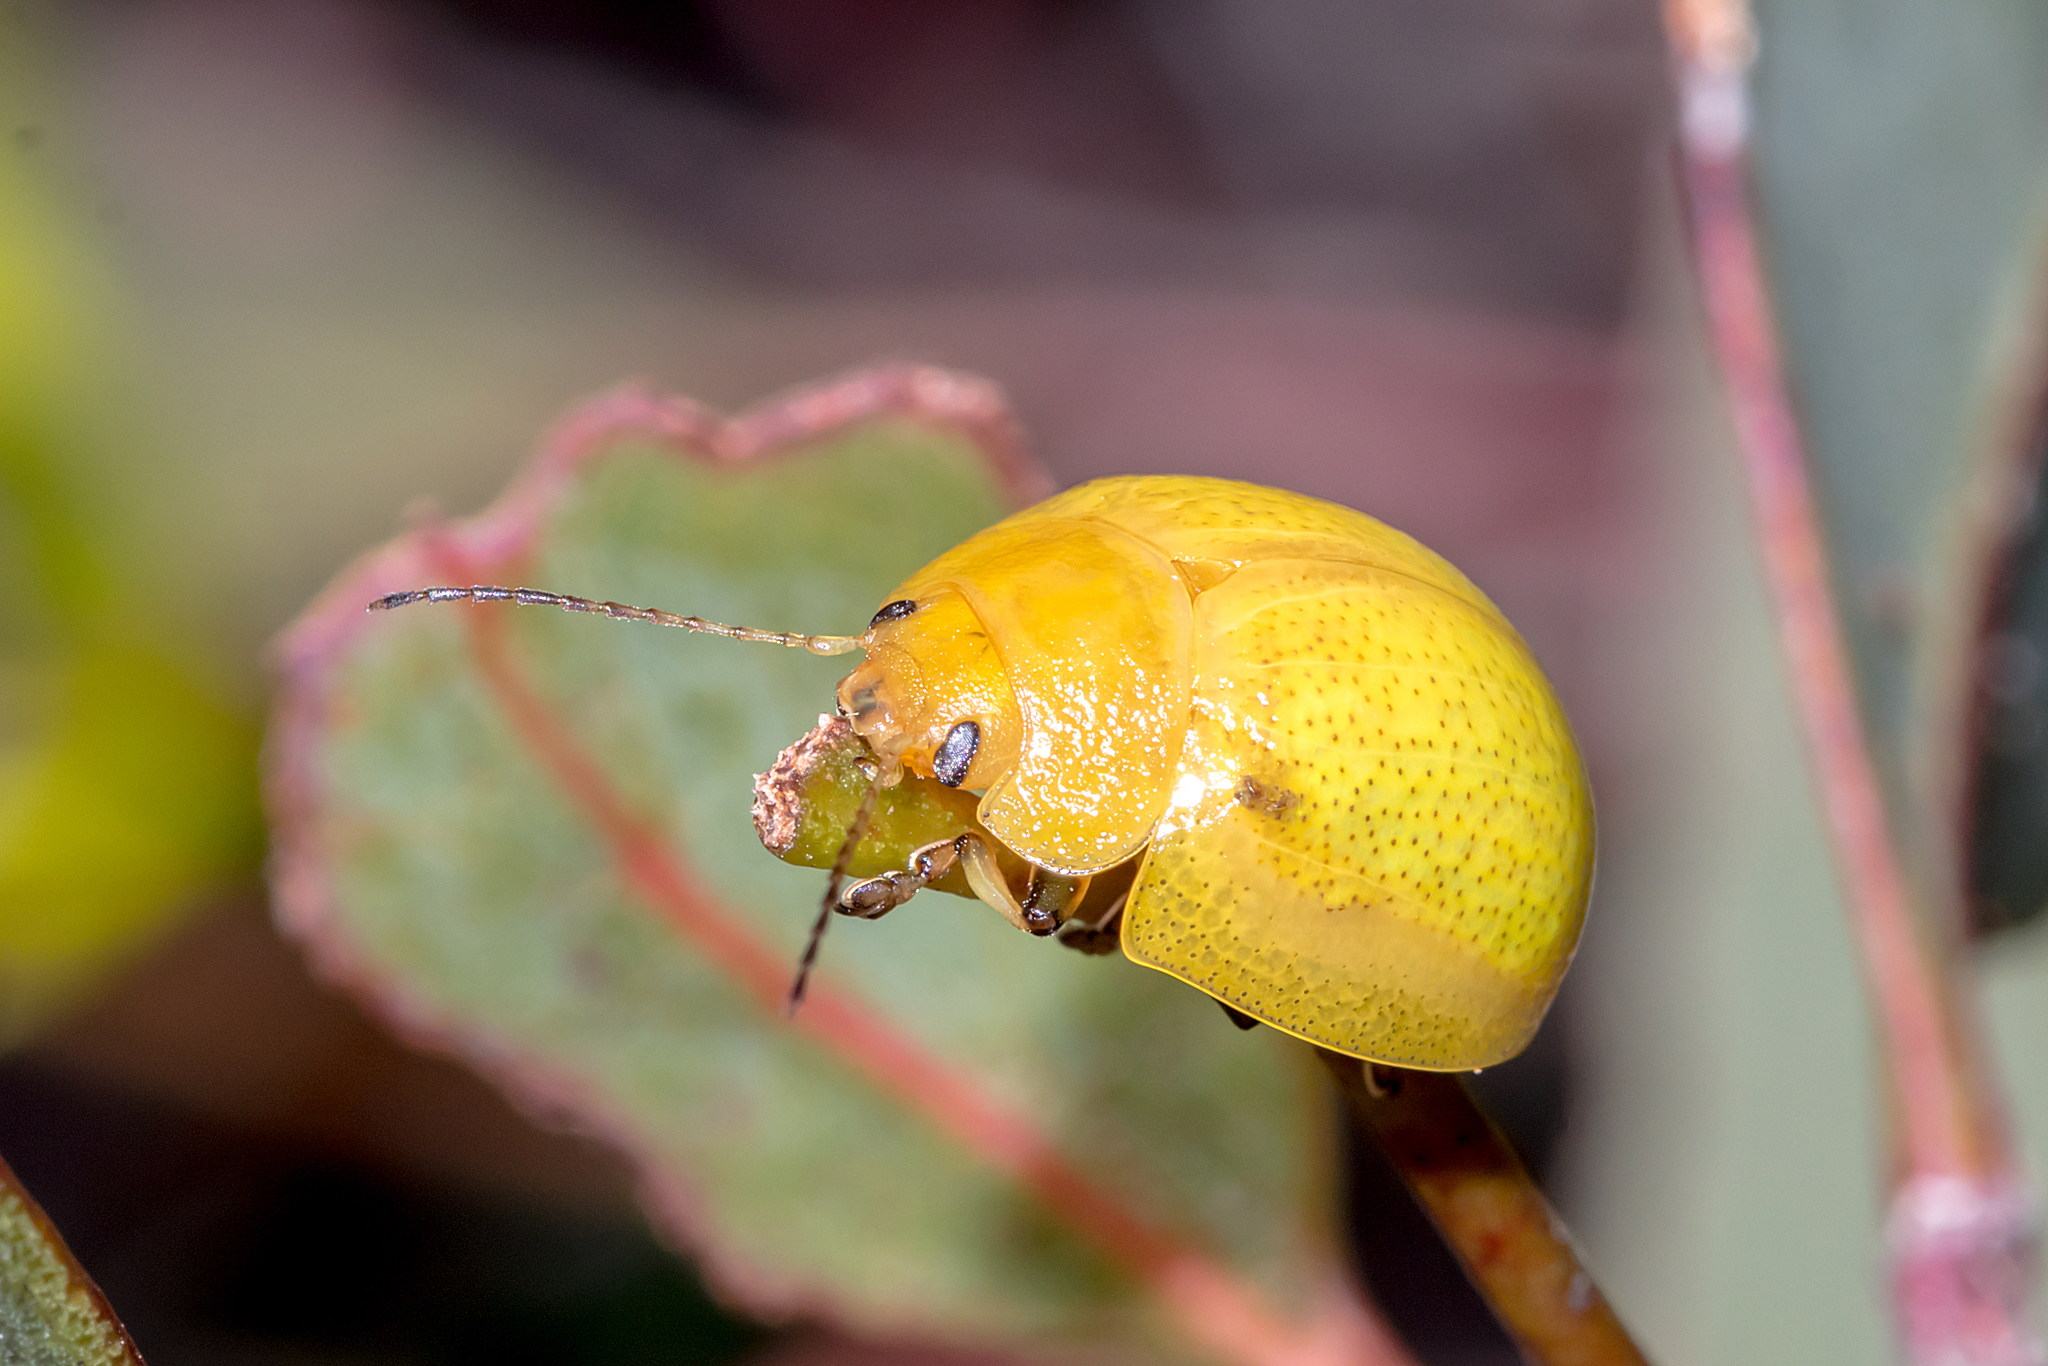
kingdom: Animalia
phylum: Arthropoda
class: Insecta
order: Coleoptera
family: Chrysomelidae
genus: Paropsisterna
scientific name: Paropsisterna
